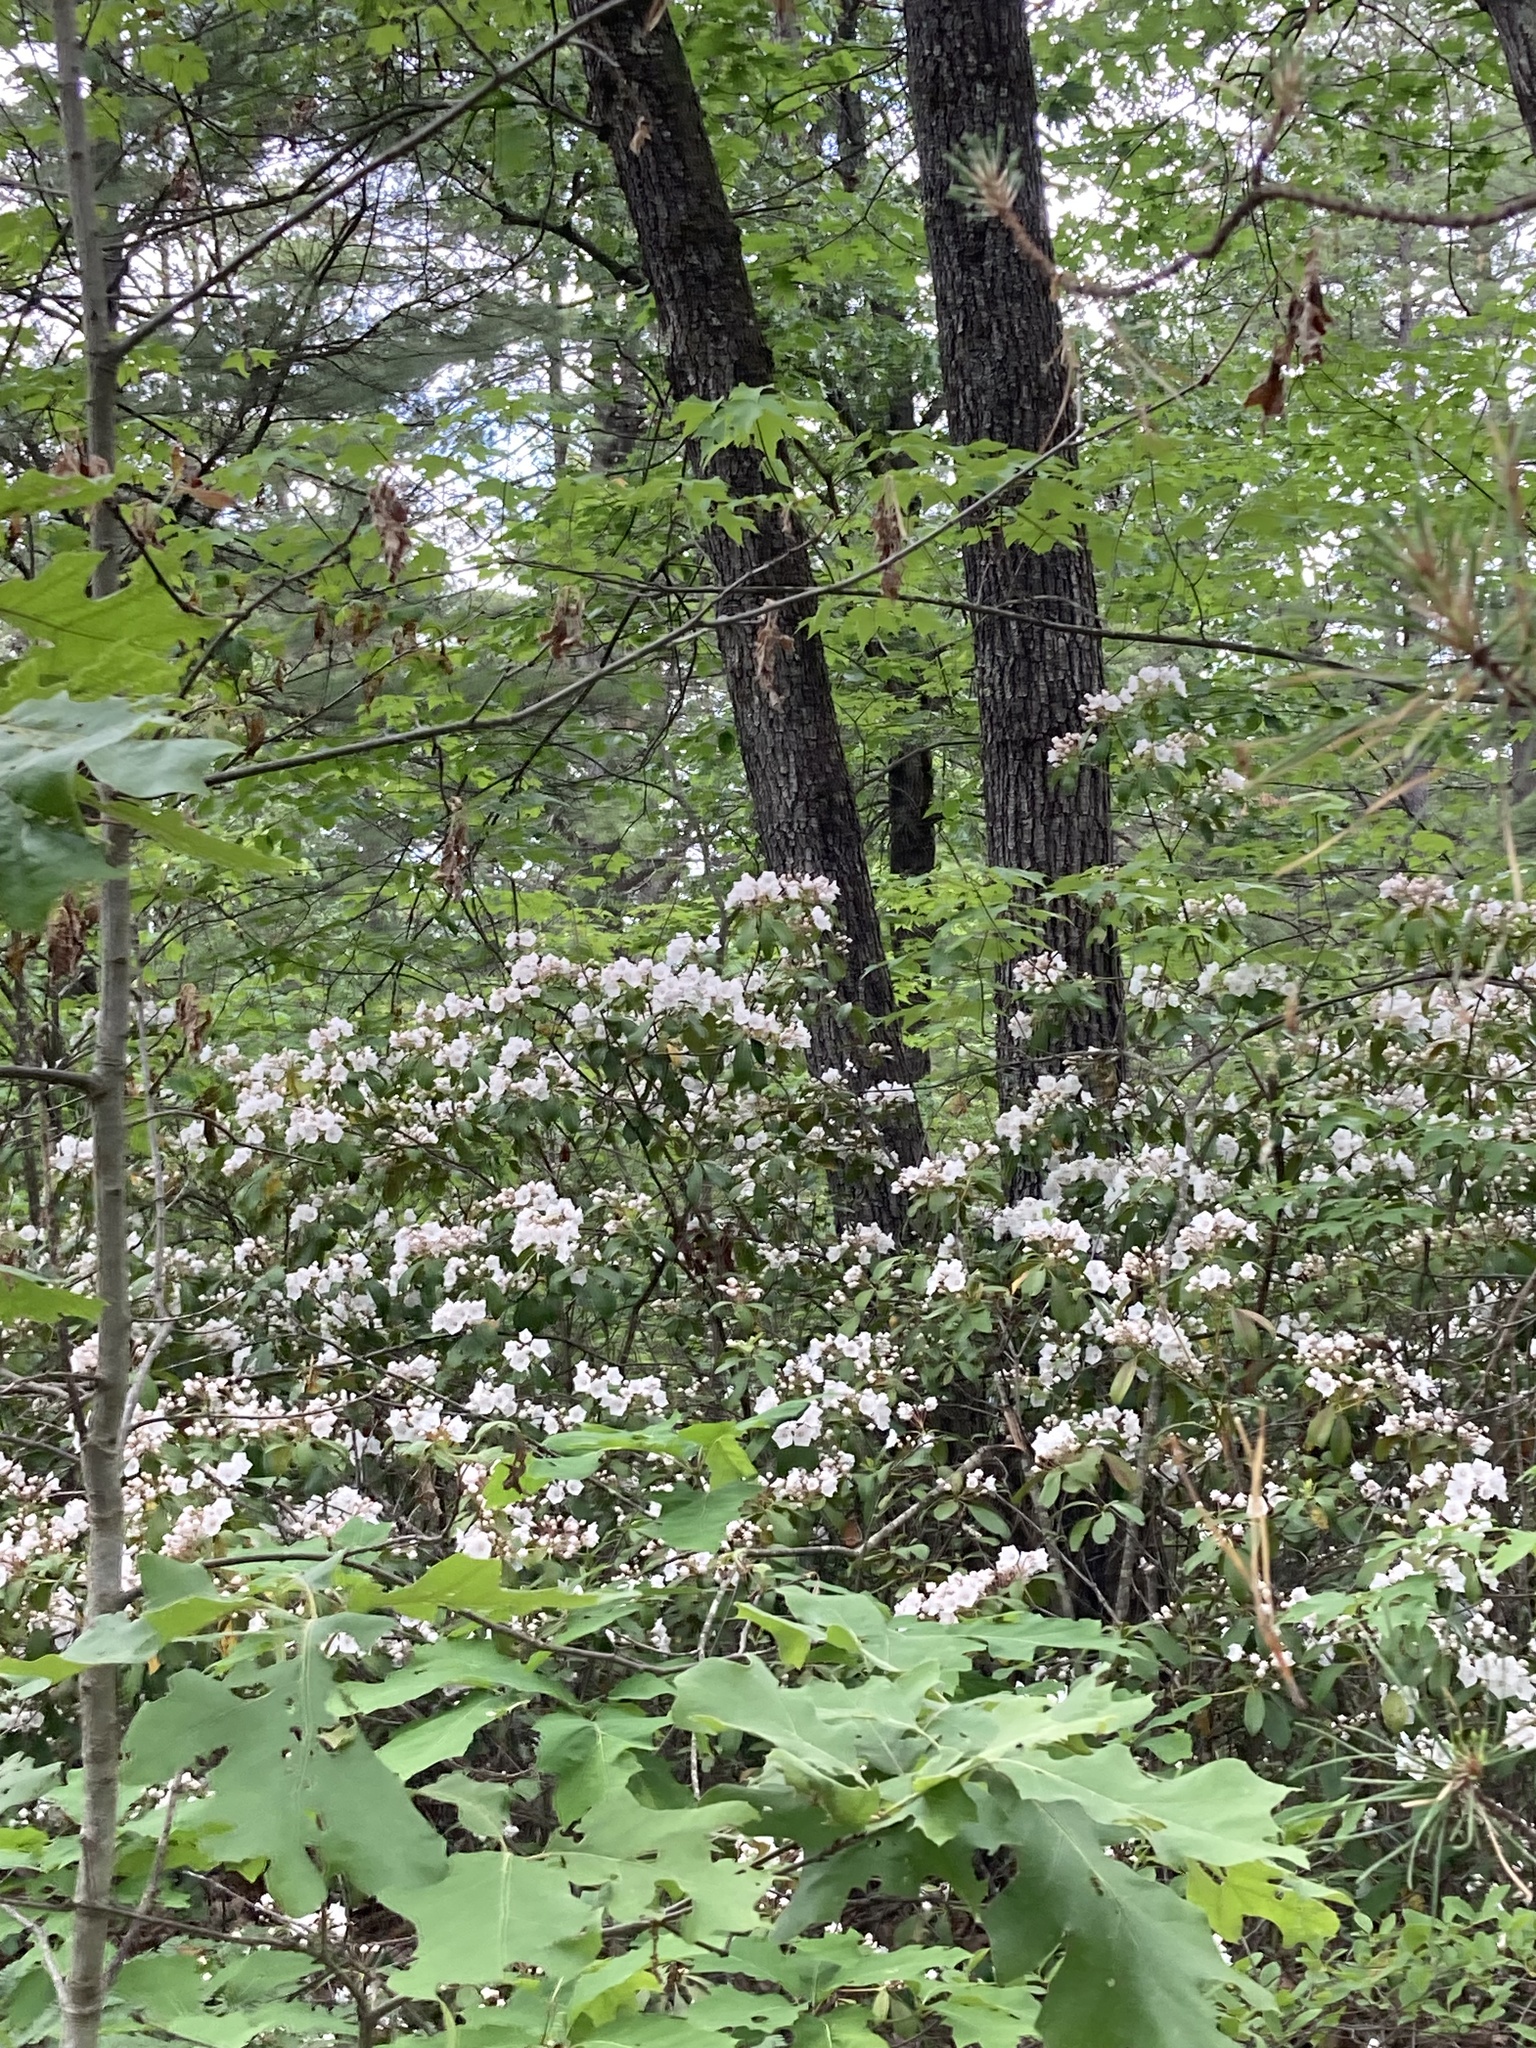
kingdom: Plantae
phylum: Tracheophyta
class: Magnoliopsida
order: Ericales
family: Ericaceae
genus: Kalmia
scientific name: Kalmia latifolia
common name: Mountain-laurel
